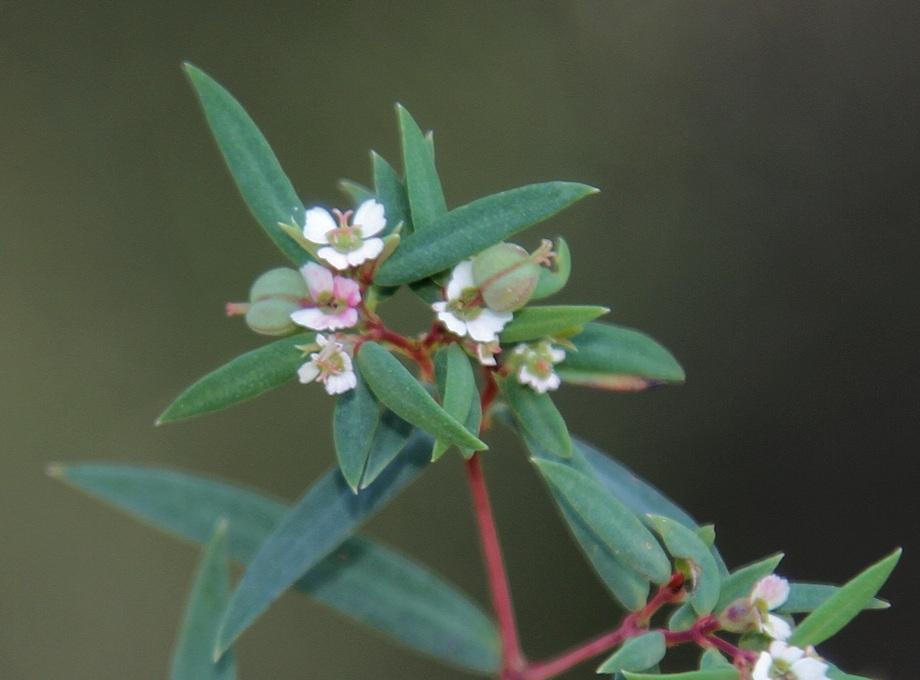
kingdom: Plantae
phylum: Tracheophyta
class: Magnoliopsida
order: Malpighiales
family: Euphorbiaceae
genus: Euphorbia
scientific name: Euphorbia neopolycnemoides
